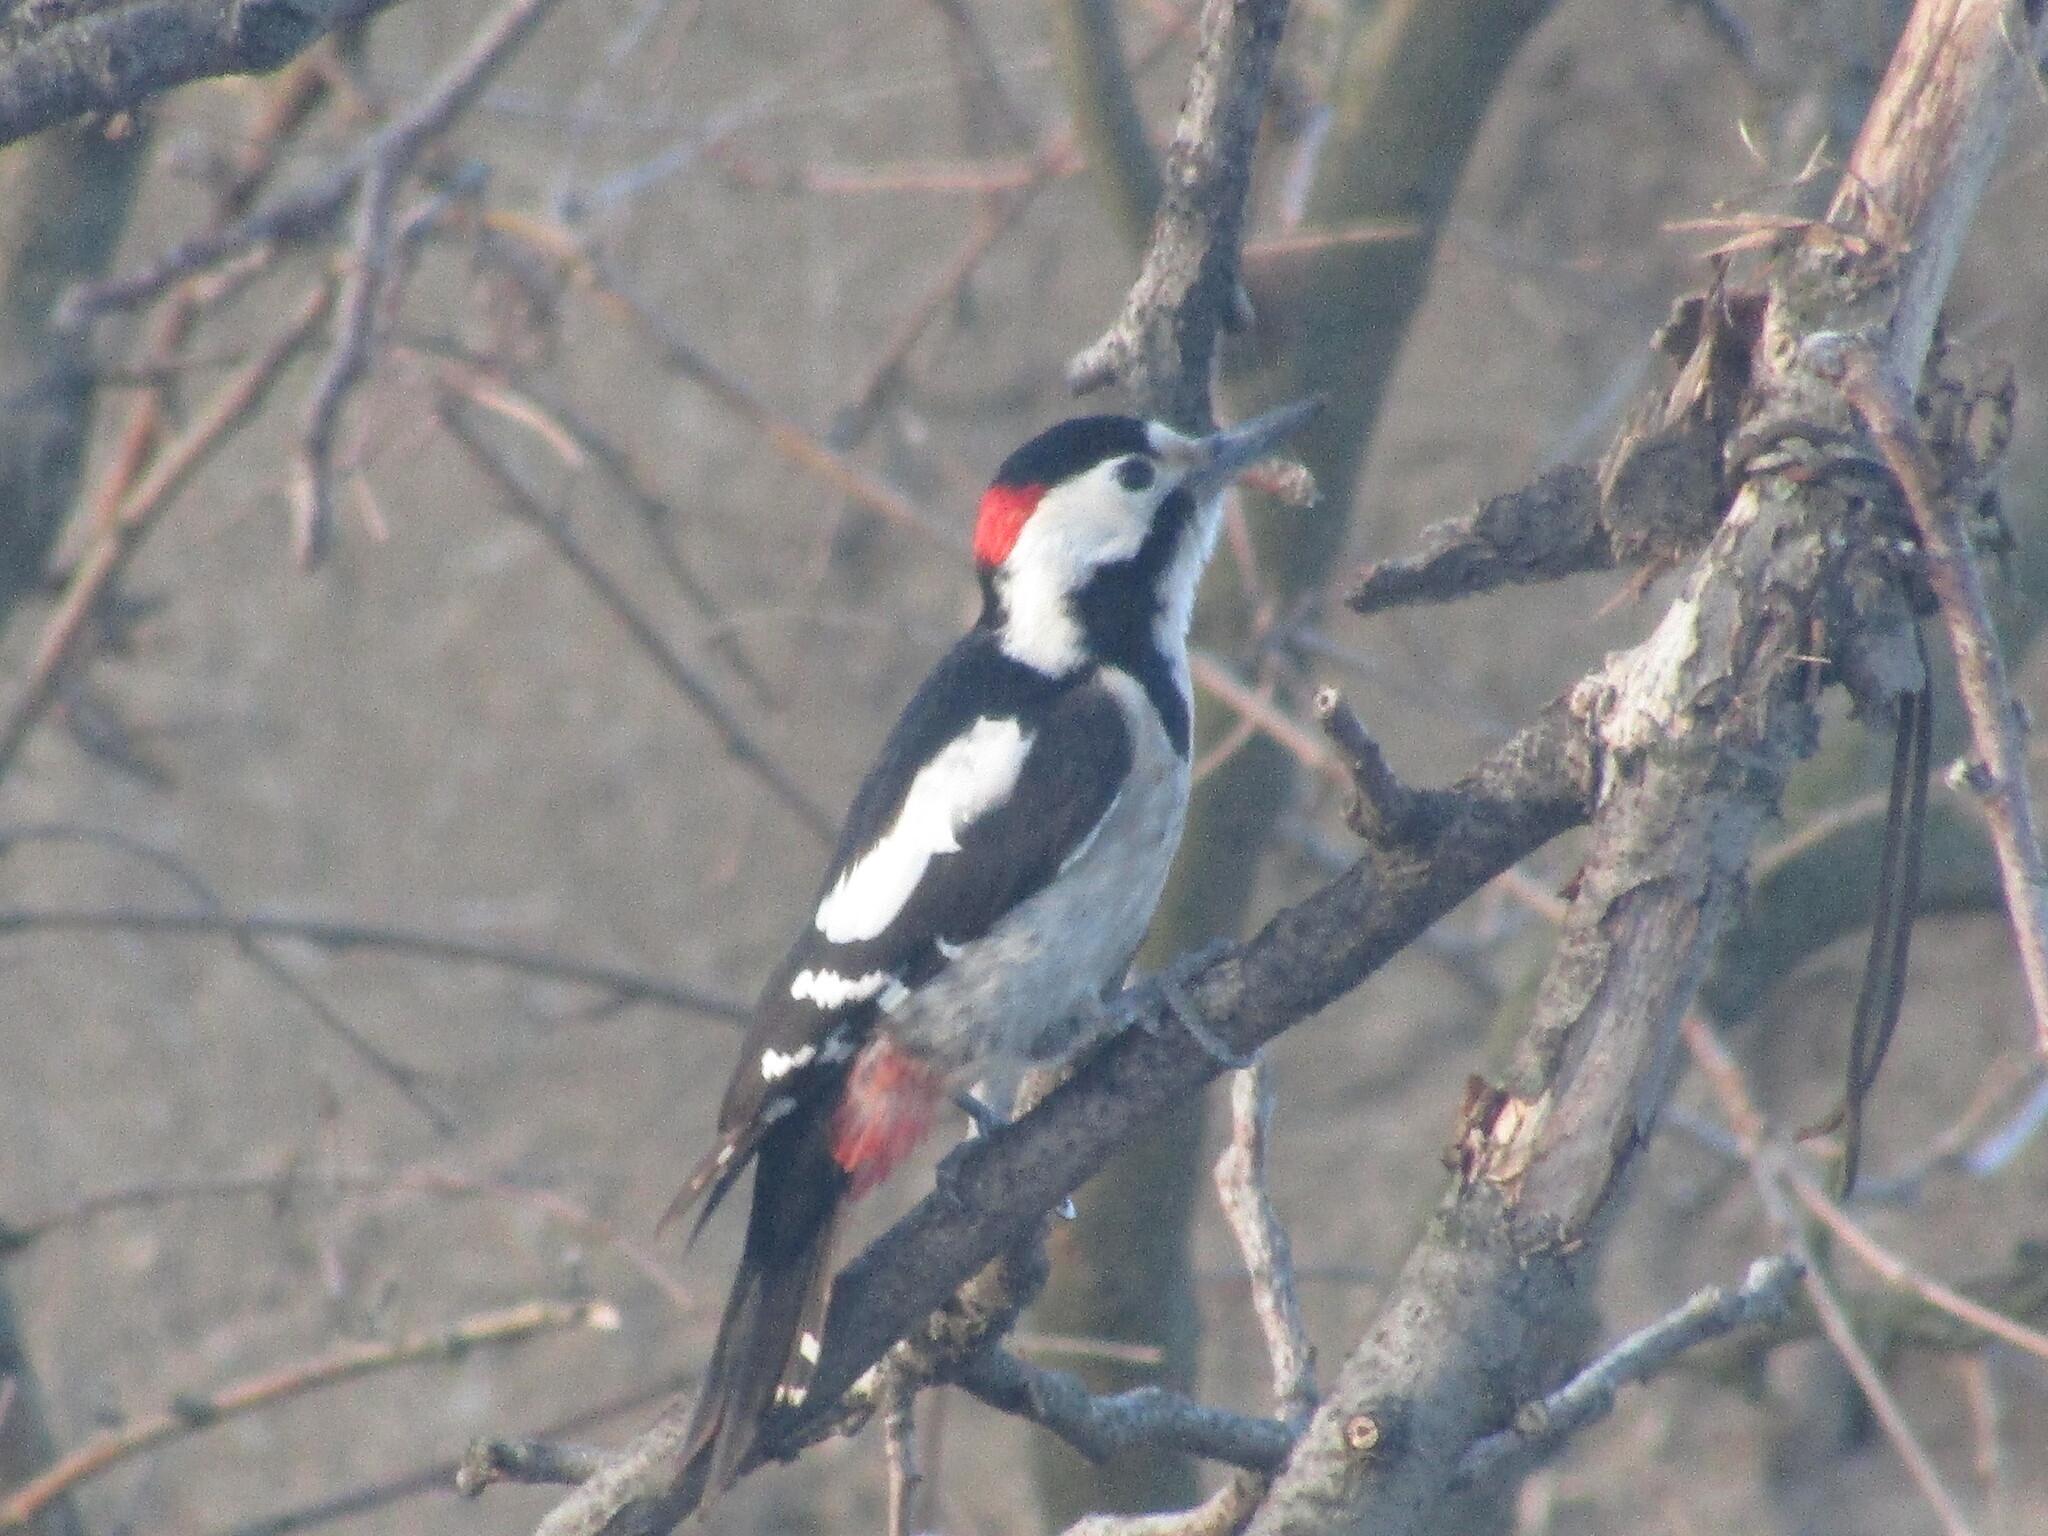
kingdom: Animalia
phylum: Chordata
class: Aves
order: Piciformes
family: Picidae
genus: Dendrocopos
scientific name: Dendrocopos syriacus
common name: Syrian woodpecker
